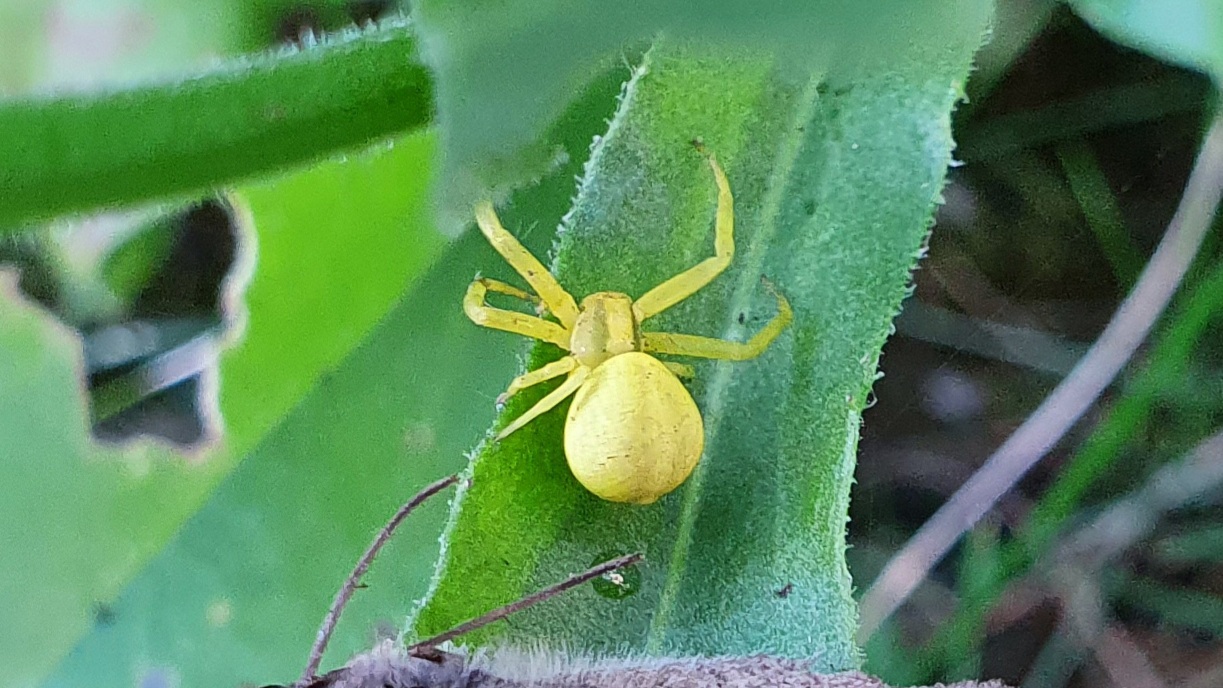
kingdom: Animalia
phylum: Arthropoda
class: Arachnida
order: Araneae
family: Thomisidae
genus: Misumena
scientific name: Misumena vatia
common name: Goldenrod crab spider
